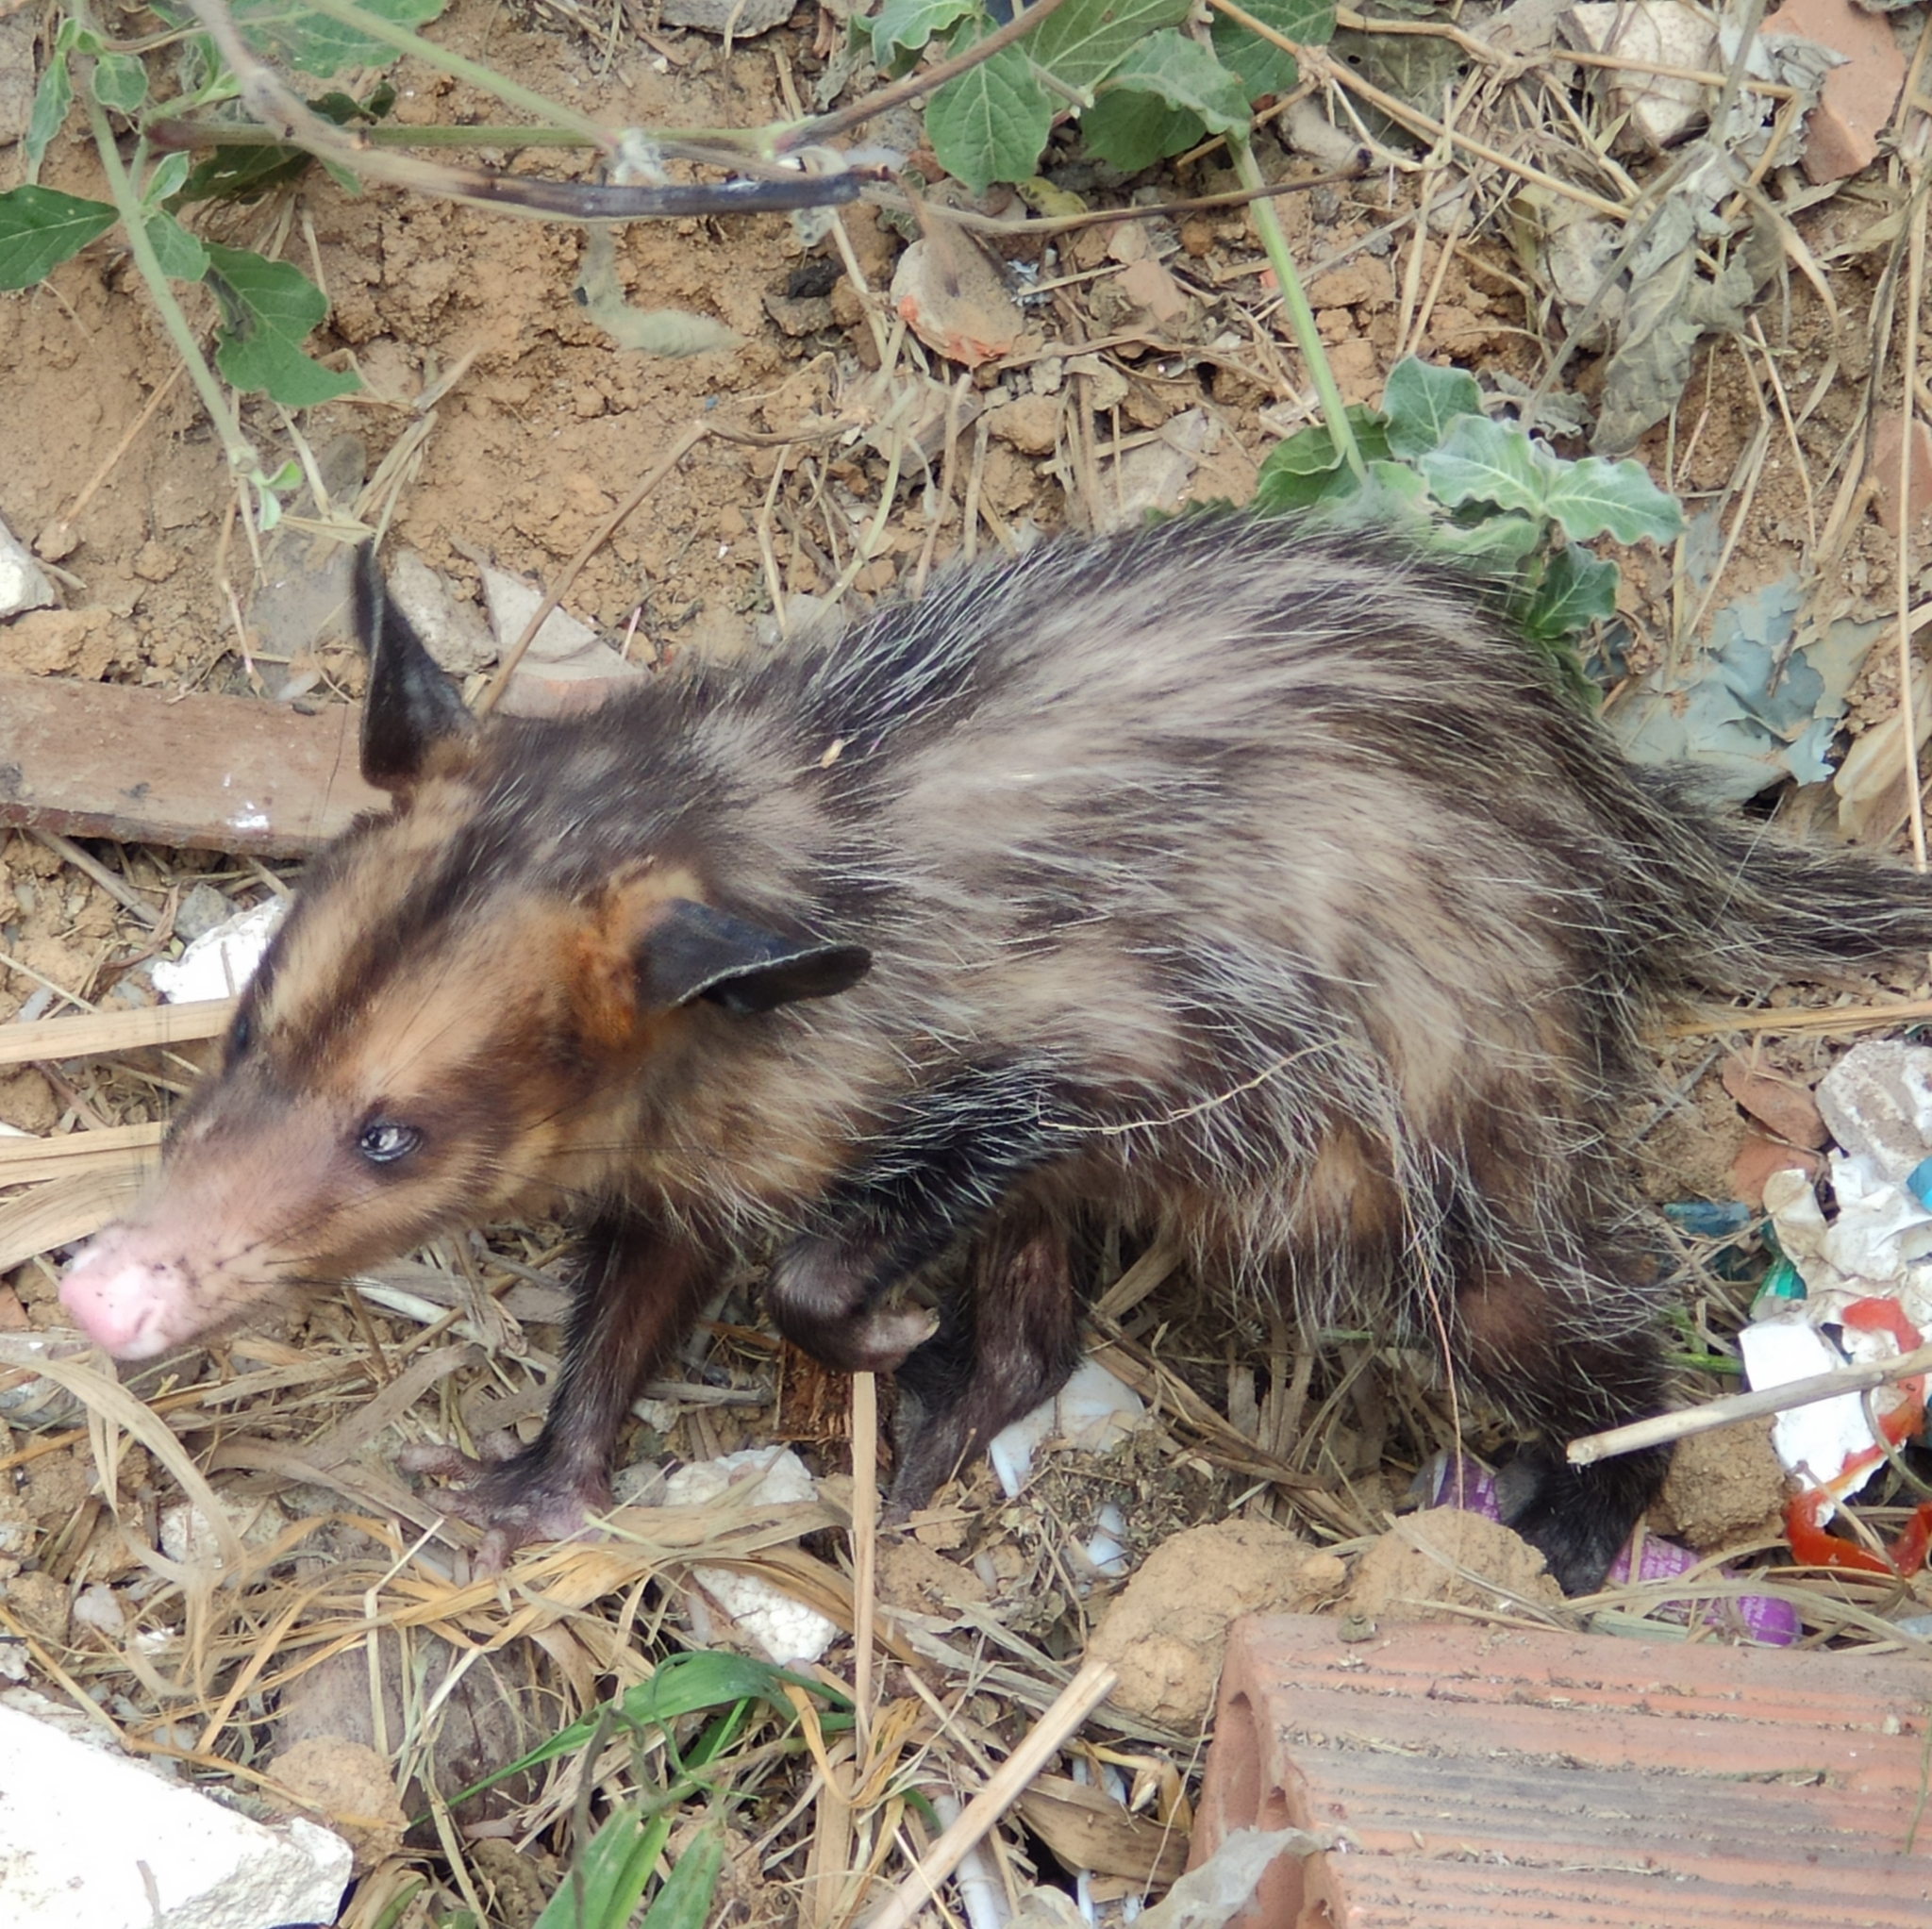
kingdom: Animalia
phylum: Chordata
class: Mammalia
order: Didelphimorphia
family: Didelphidae
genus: Didelphis
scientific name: Didelphis aurita
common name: Big-eared opossum
